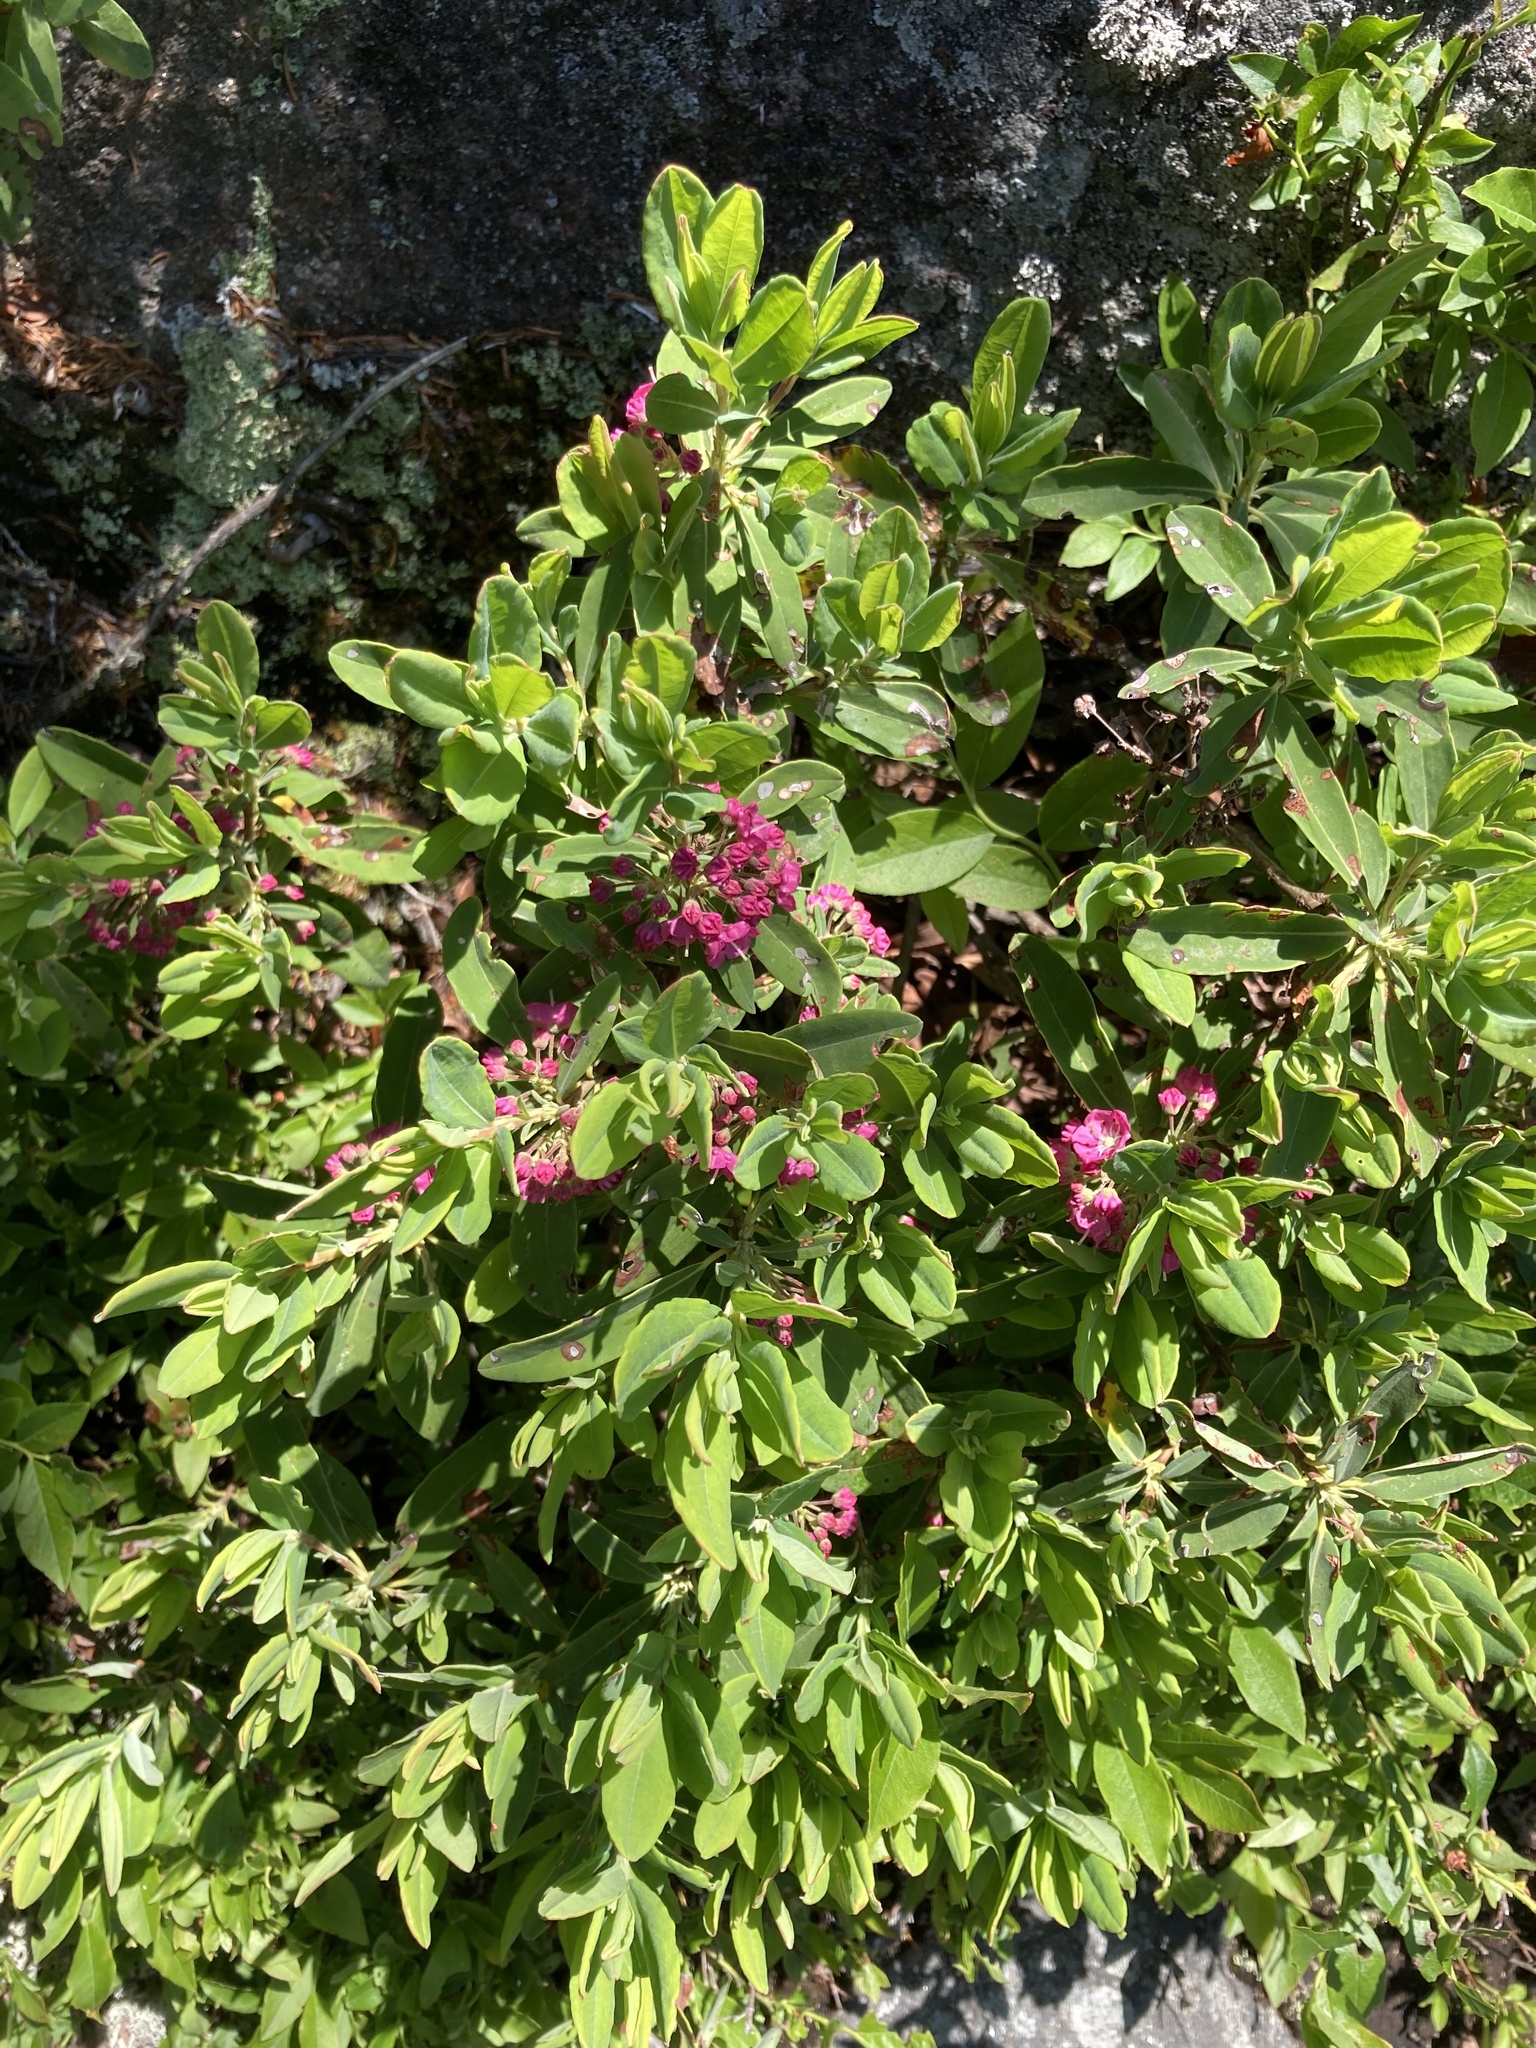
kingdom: Plantae
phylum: Tracheophyta
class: Magnoliopsida
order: Ericales
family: Ericaceae
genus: Kalmia
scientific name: Kalmia angustifolia
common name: Sheep-laurel
